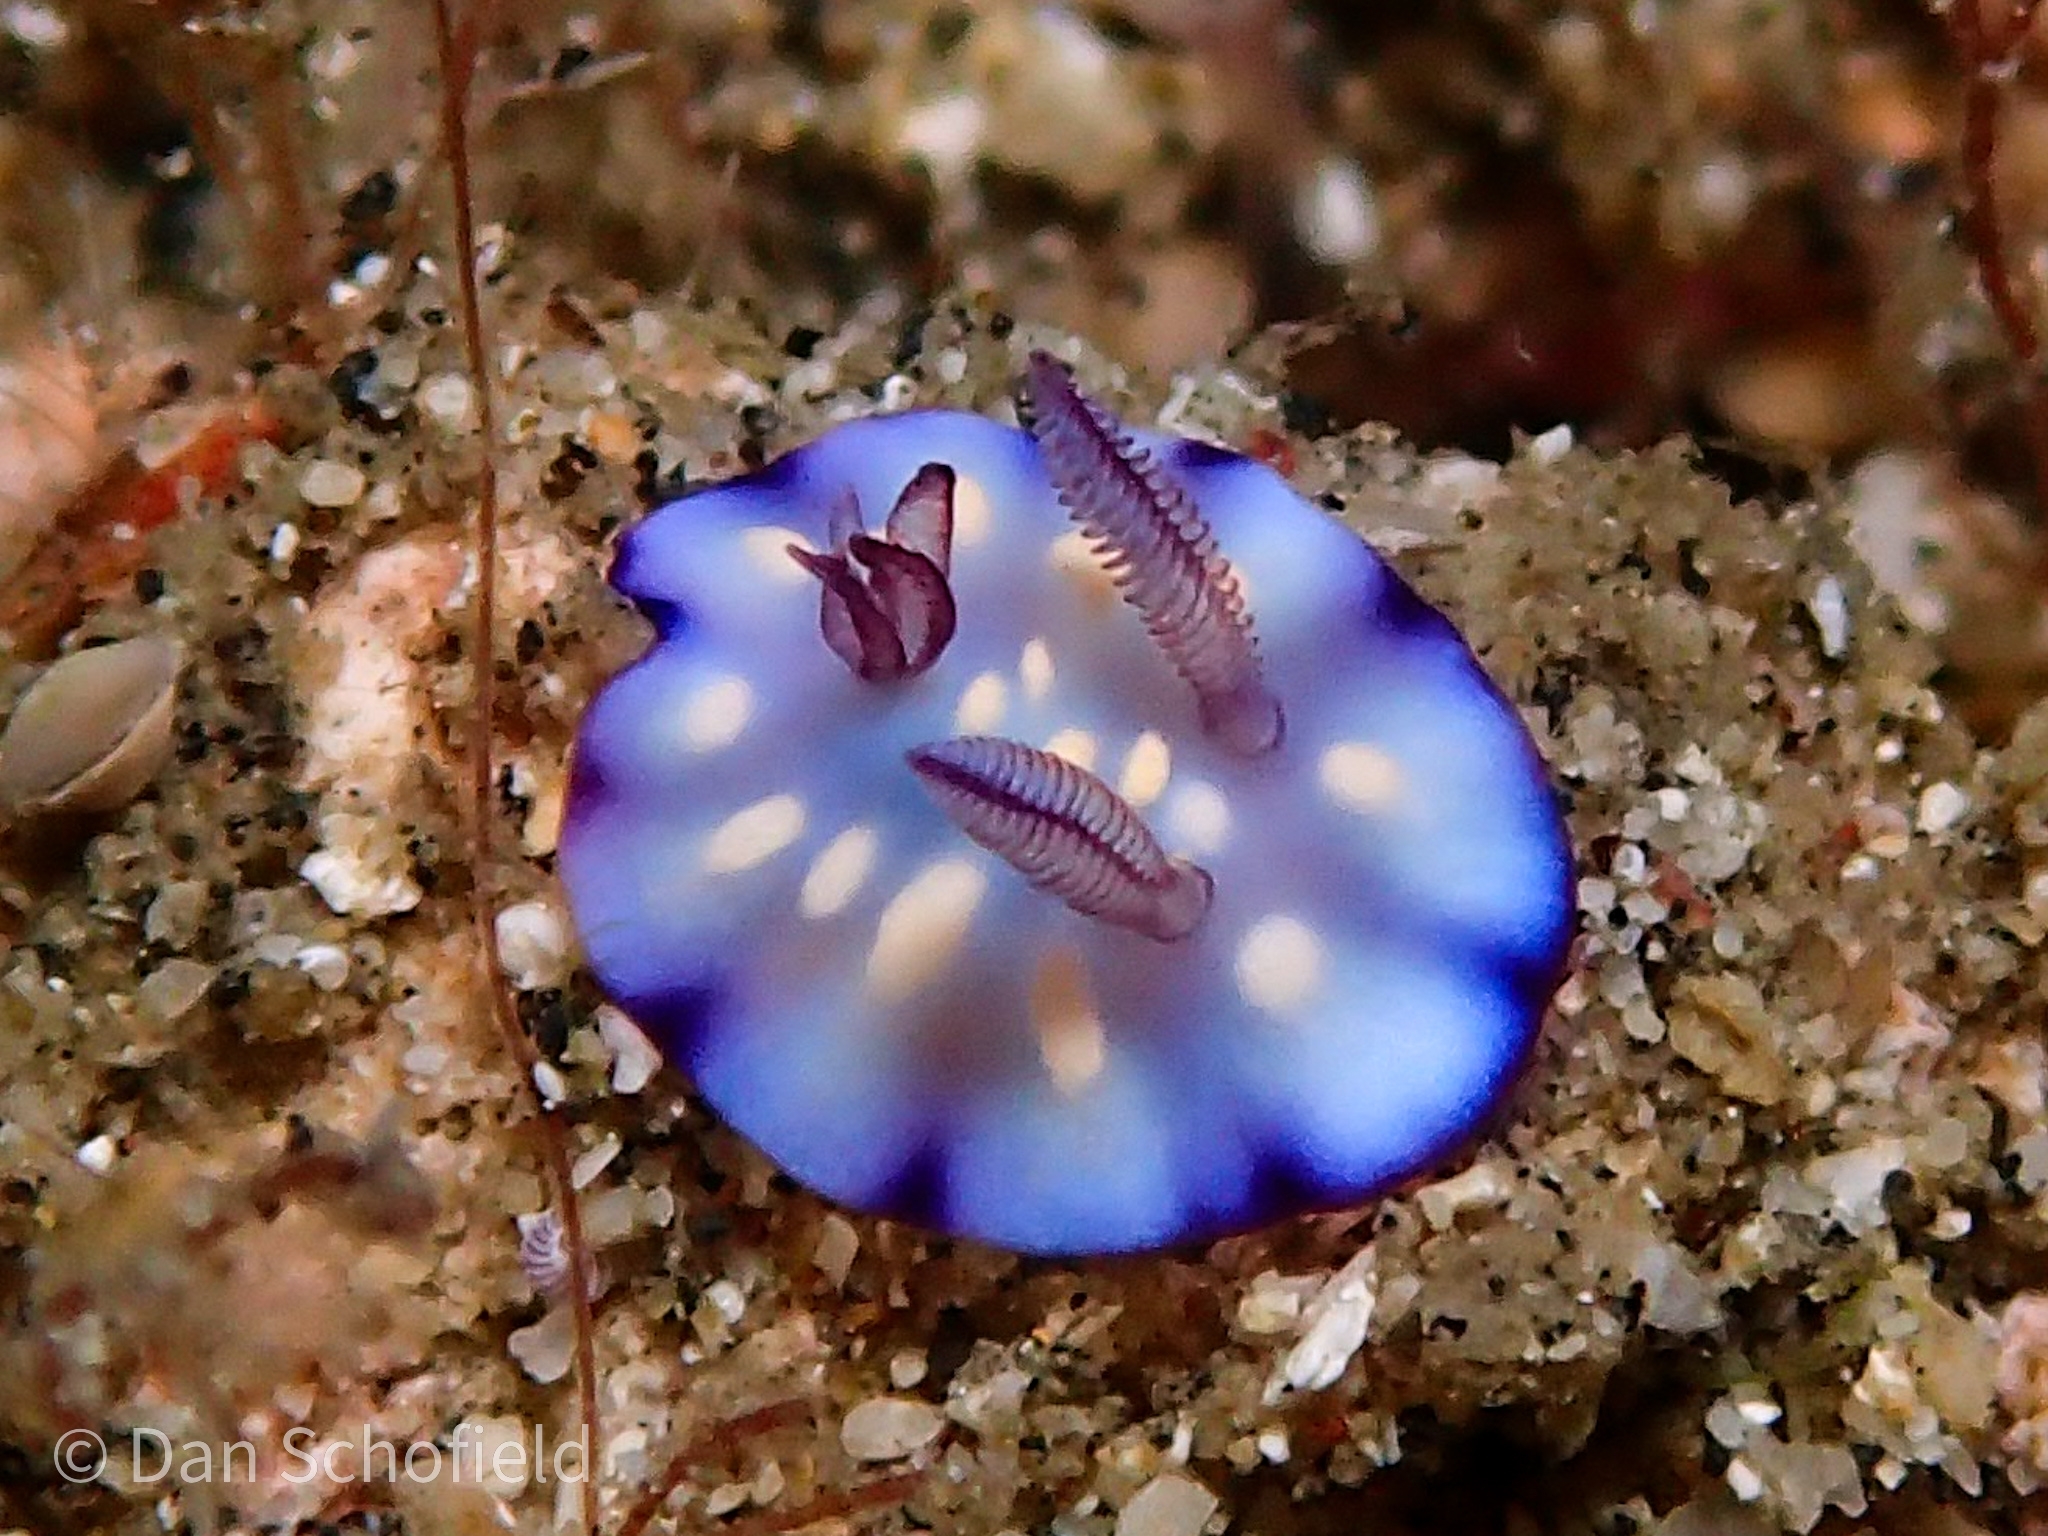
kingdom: Animalia
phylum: Mollusca
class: Gastropoda
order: Nudibranchia
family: Chromodorididae
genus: Goniobranchus
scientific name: Goniobranchus hintuanensis
